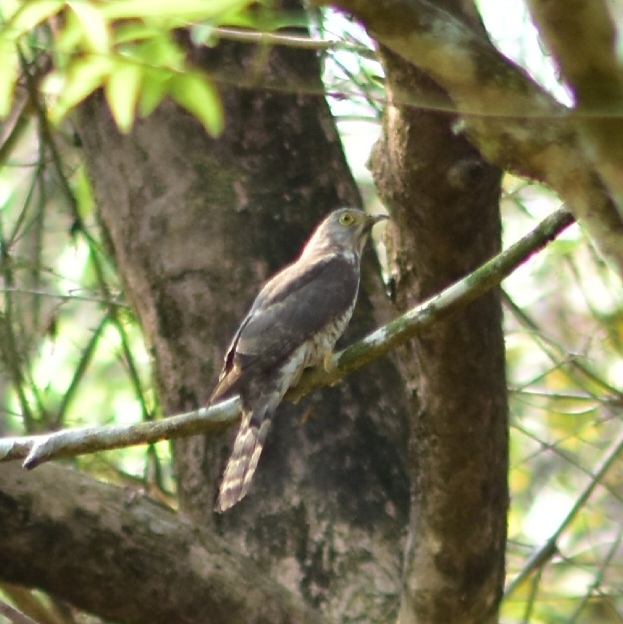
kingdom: Animalia
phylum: Chordata
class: Aves
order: Cuculiformes
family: Cuculidae
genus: Cuculus
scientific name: Cuculus varius
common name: Common hawk cuckoo
